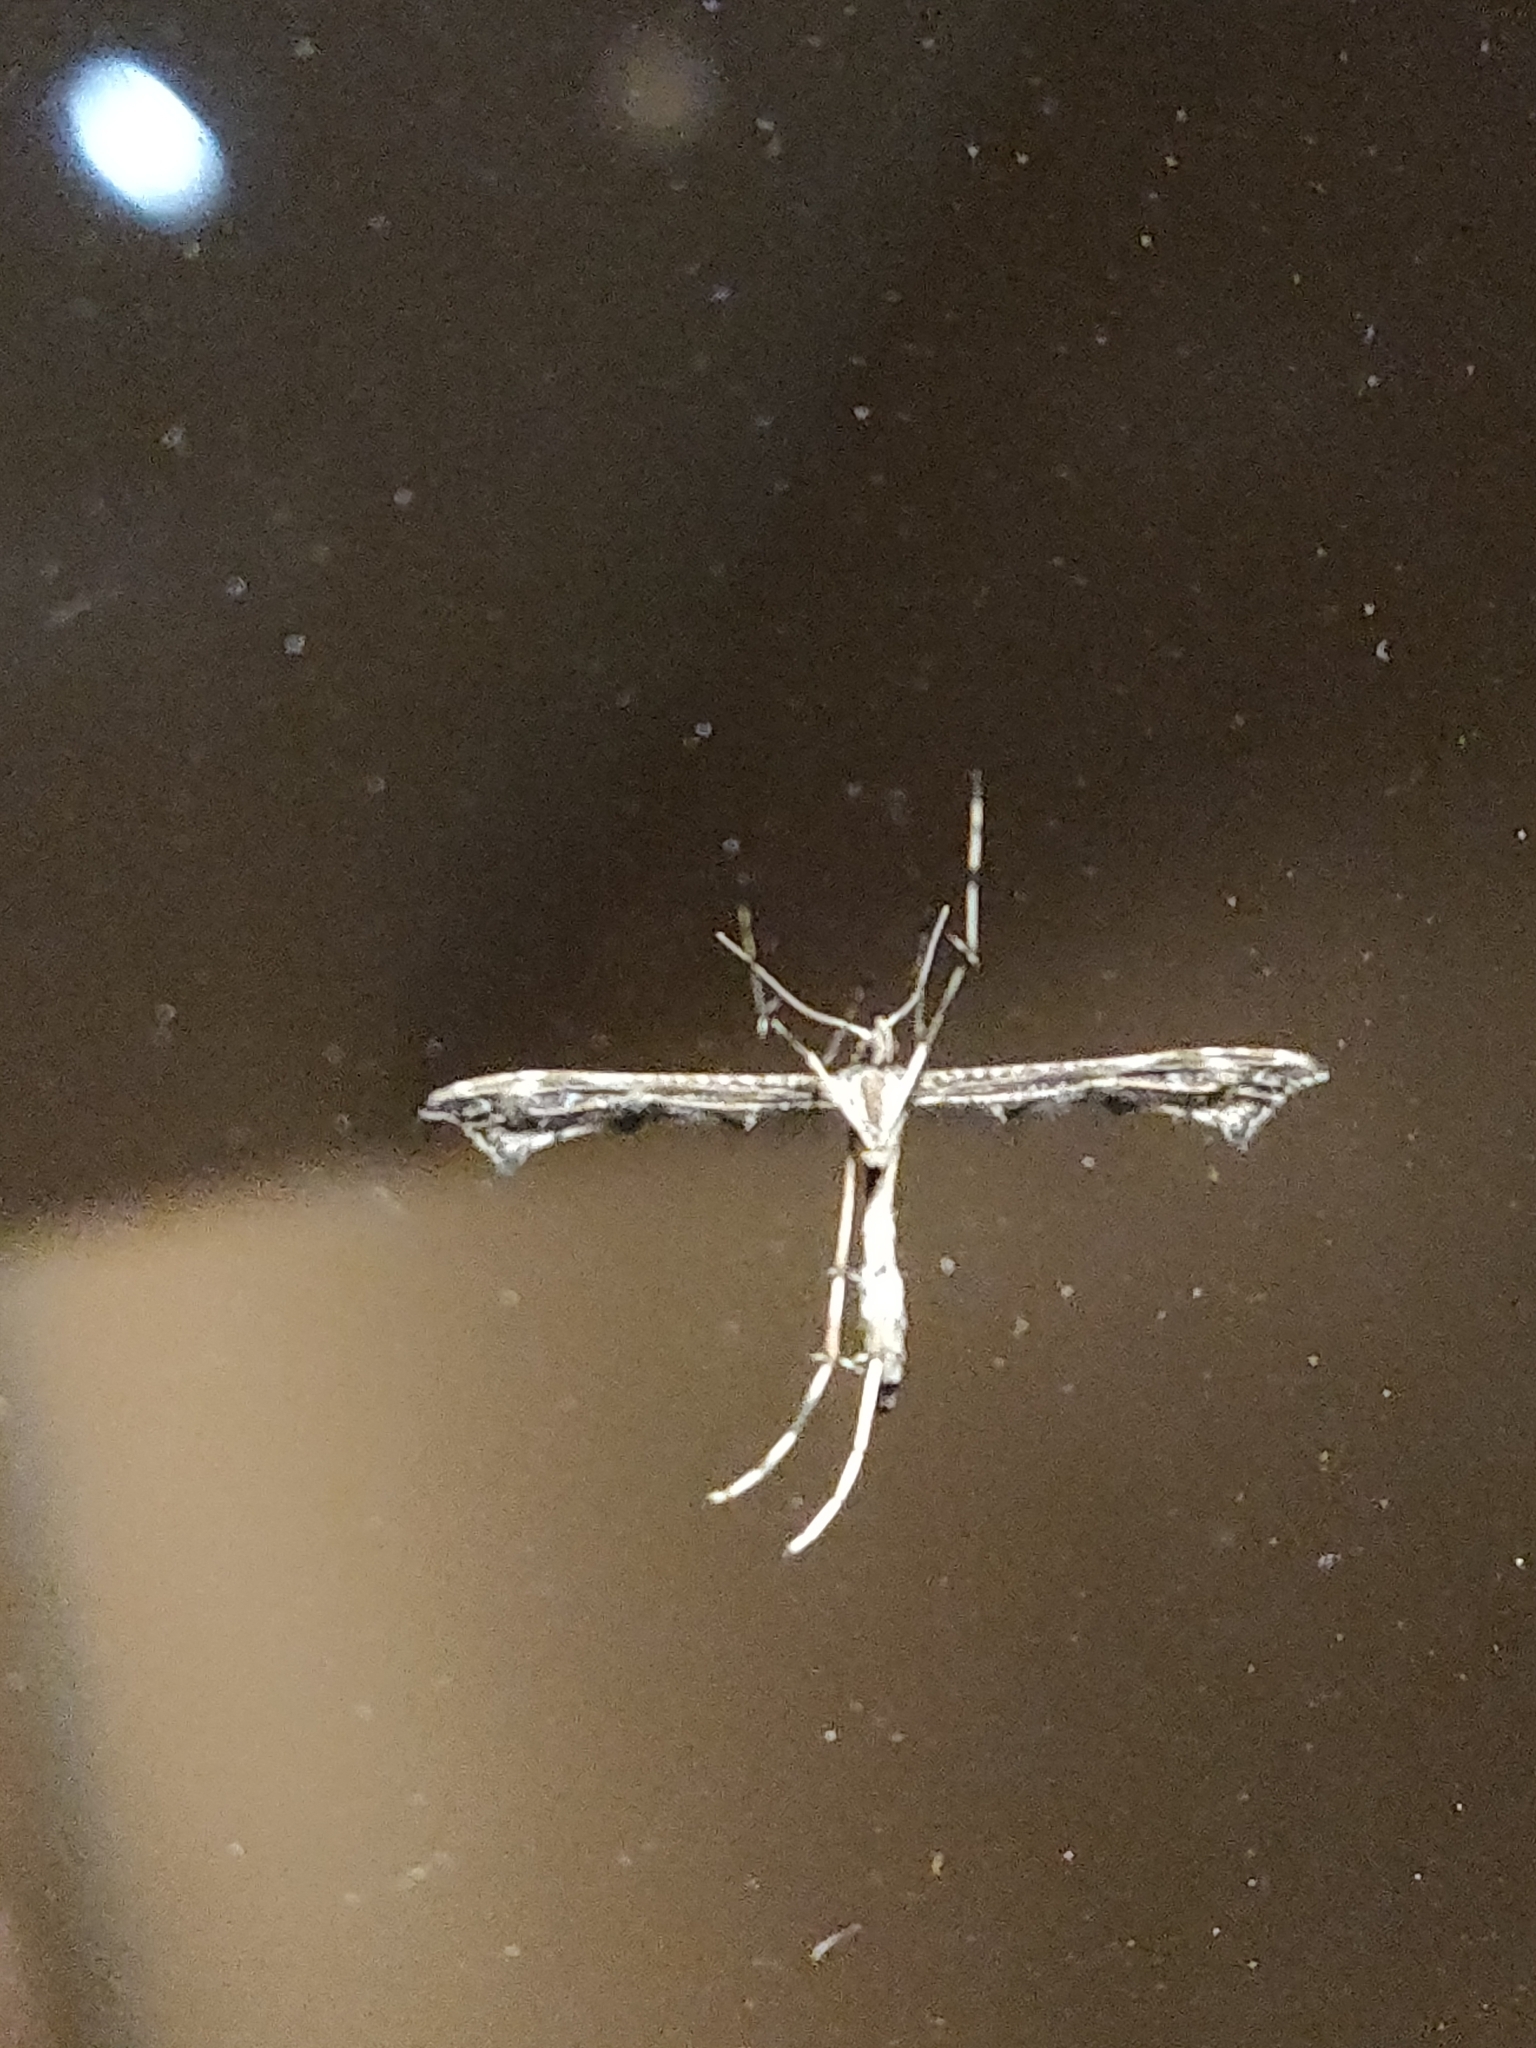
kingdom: Animalia
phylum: Arthropoda
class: Insecta
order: Lepidoptera
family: Pterophoridae
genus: Amblyptilia
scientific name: Amblyptilia acanthadactyla
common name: Beautiful plume
